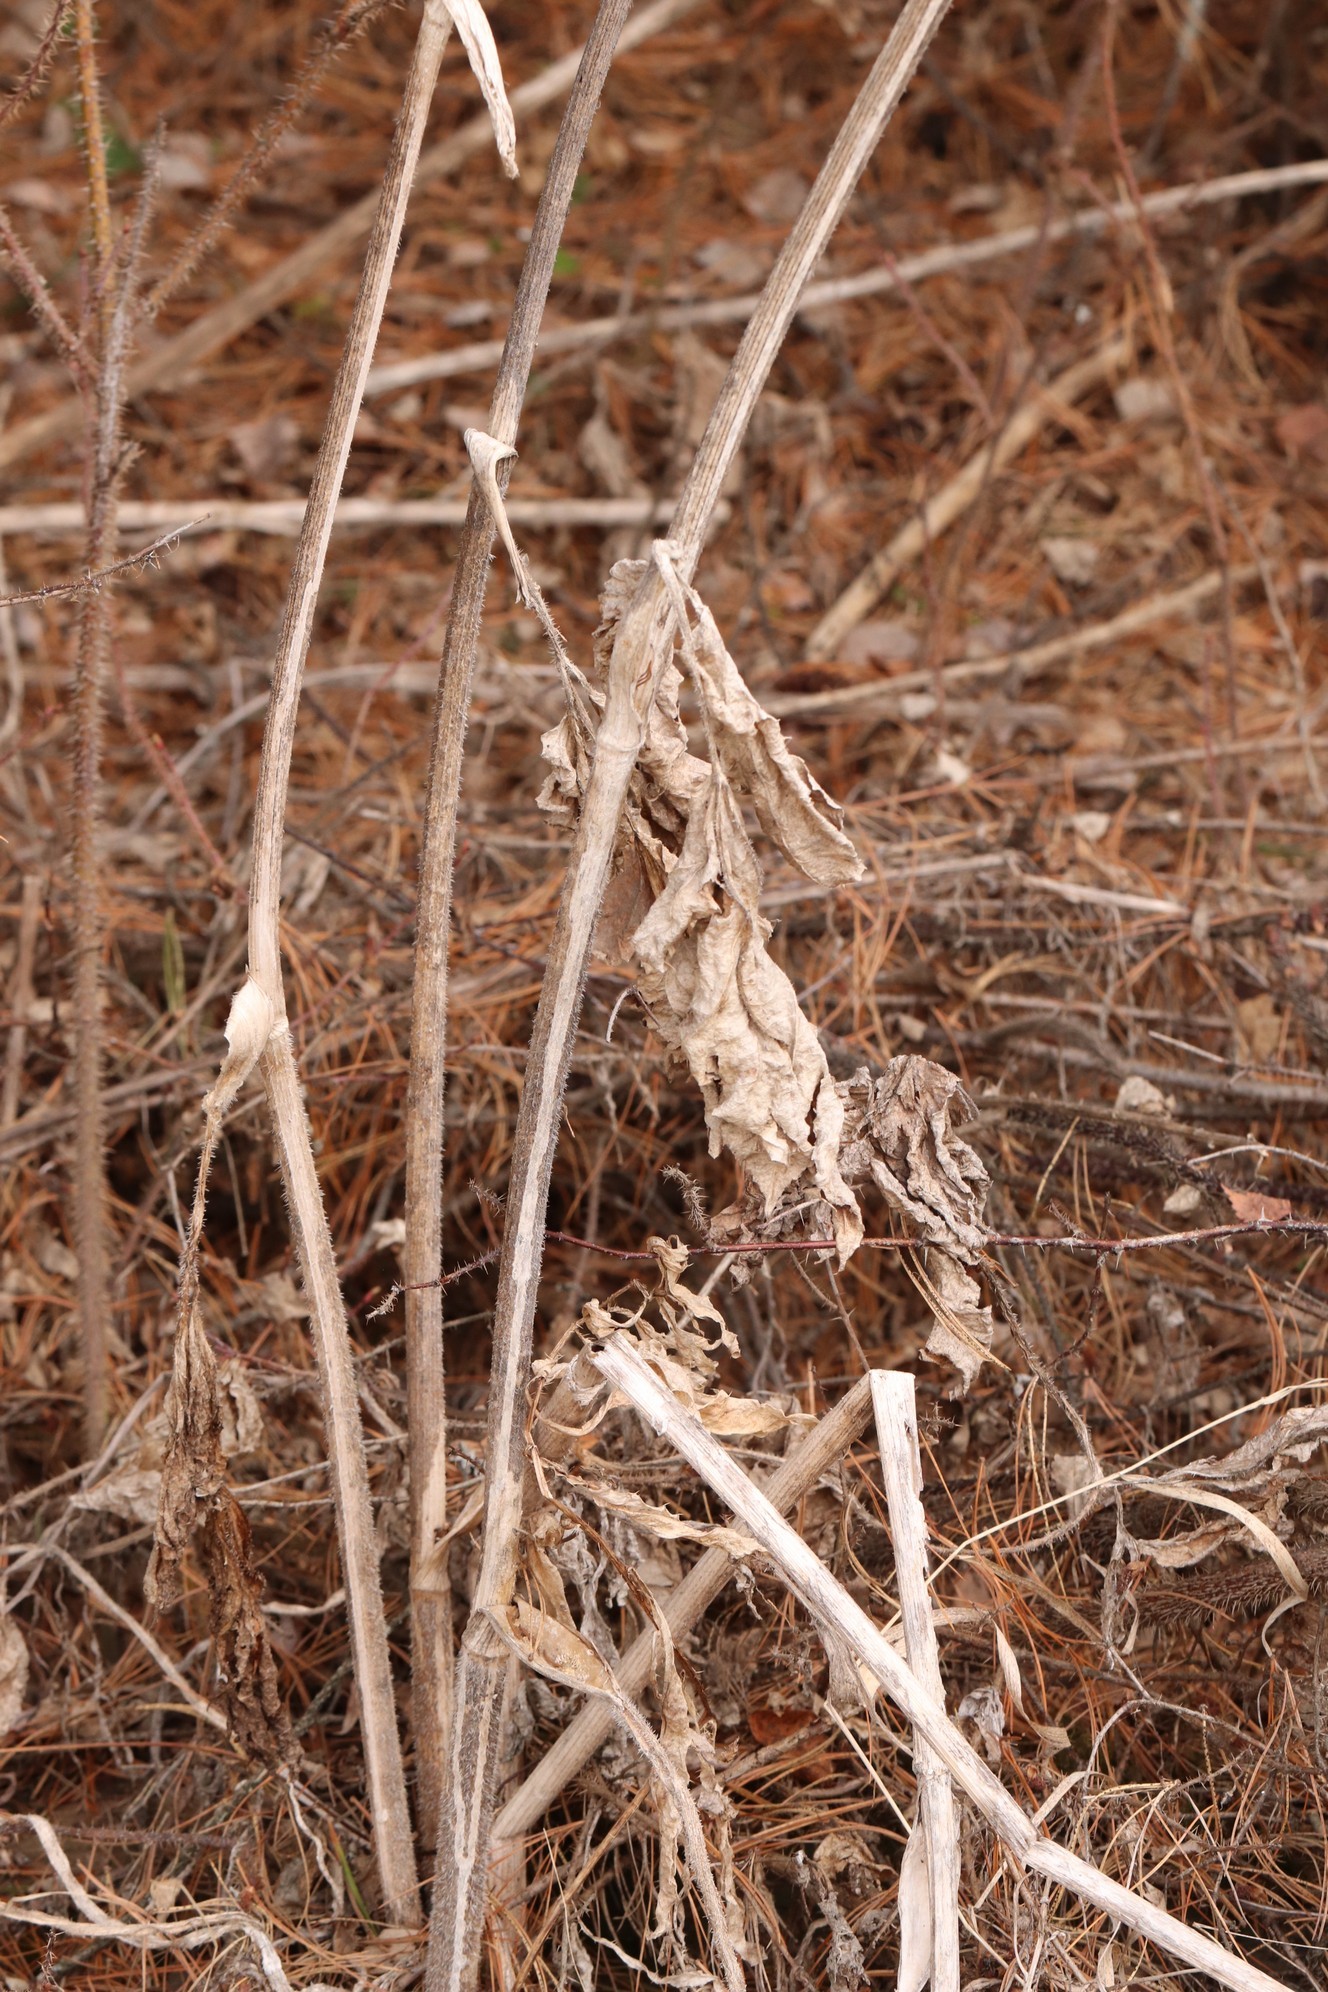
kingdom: Plantae
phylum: Tracheophyta
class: Magnoliopsida
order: Apiales
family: Apiaceae
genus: Heracleum
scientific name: Heracleum sphondylium
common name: Hogweed
